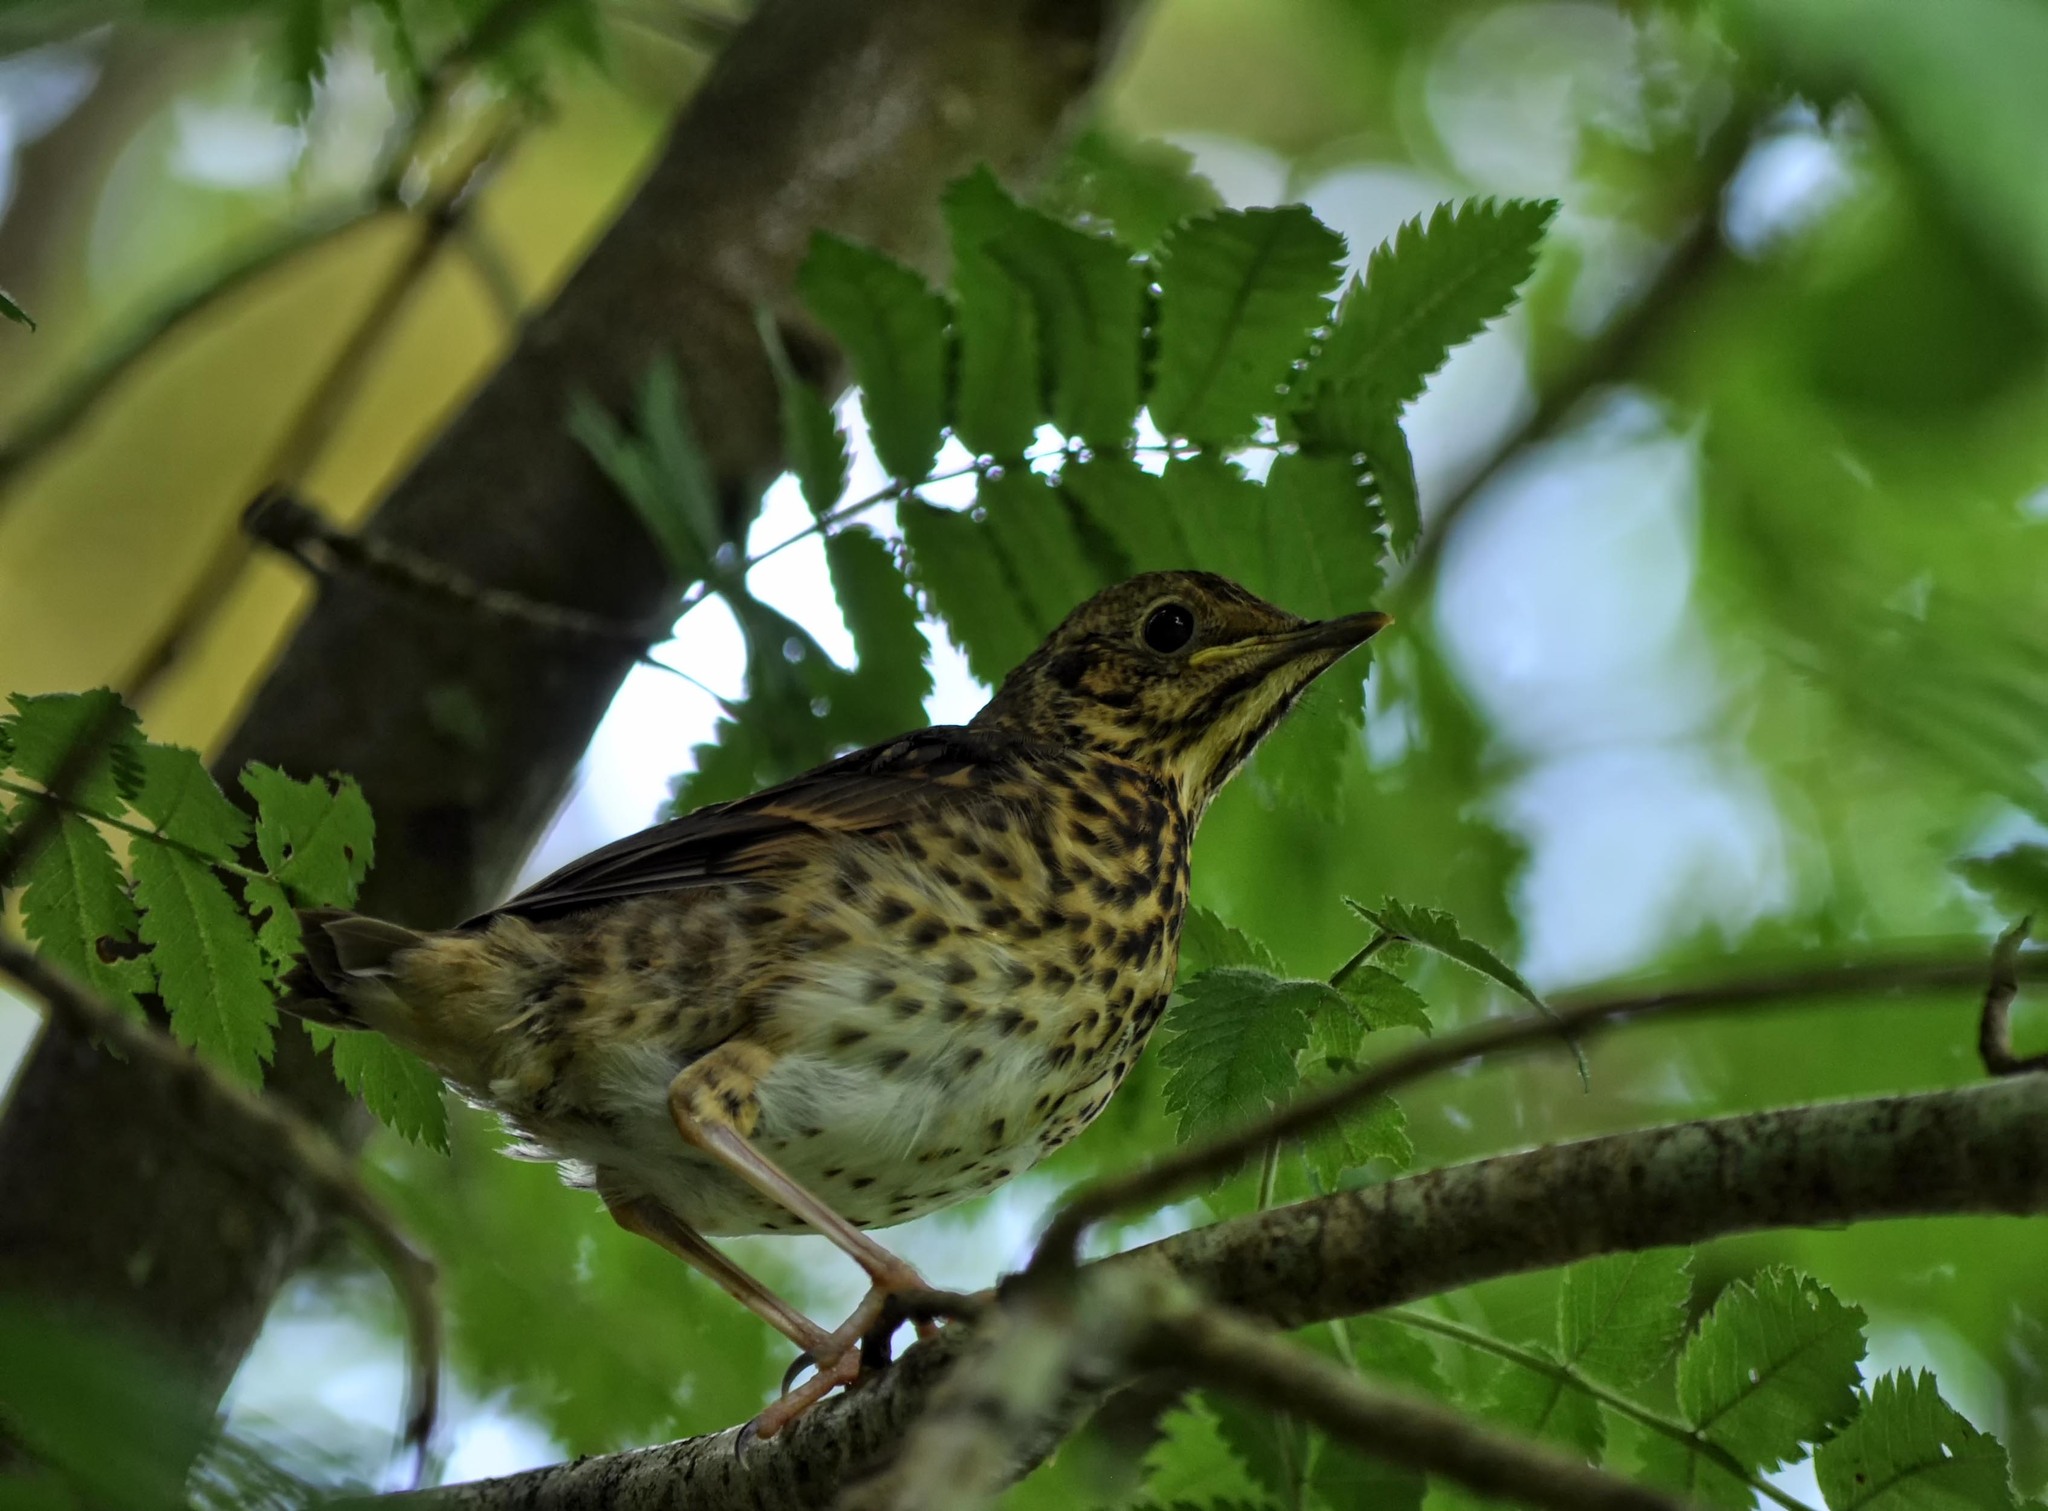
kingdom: Animalia
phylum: Chordata
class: Aves
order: Passeriformes
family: Turdidae
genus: Turdus
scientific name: Turdus philomelos
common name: Song thrush
